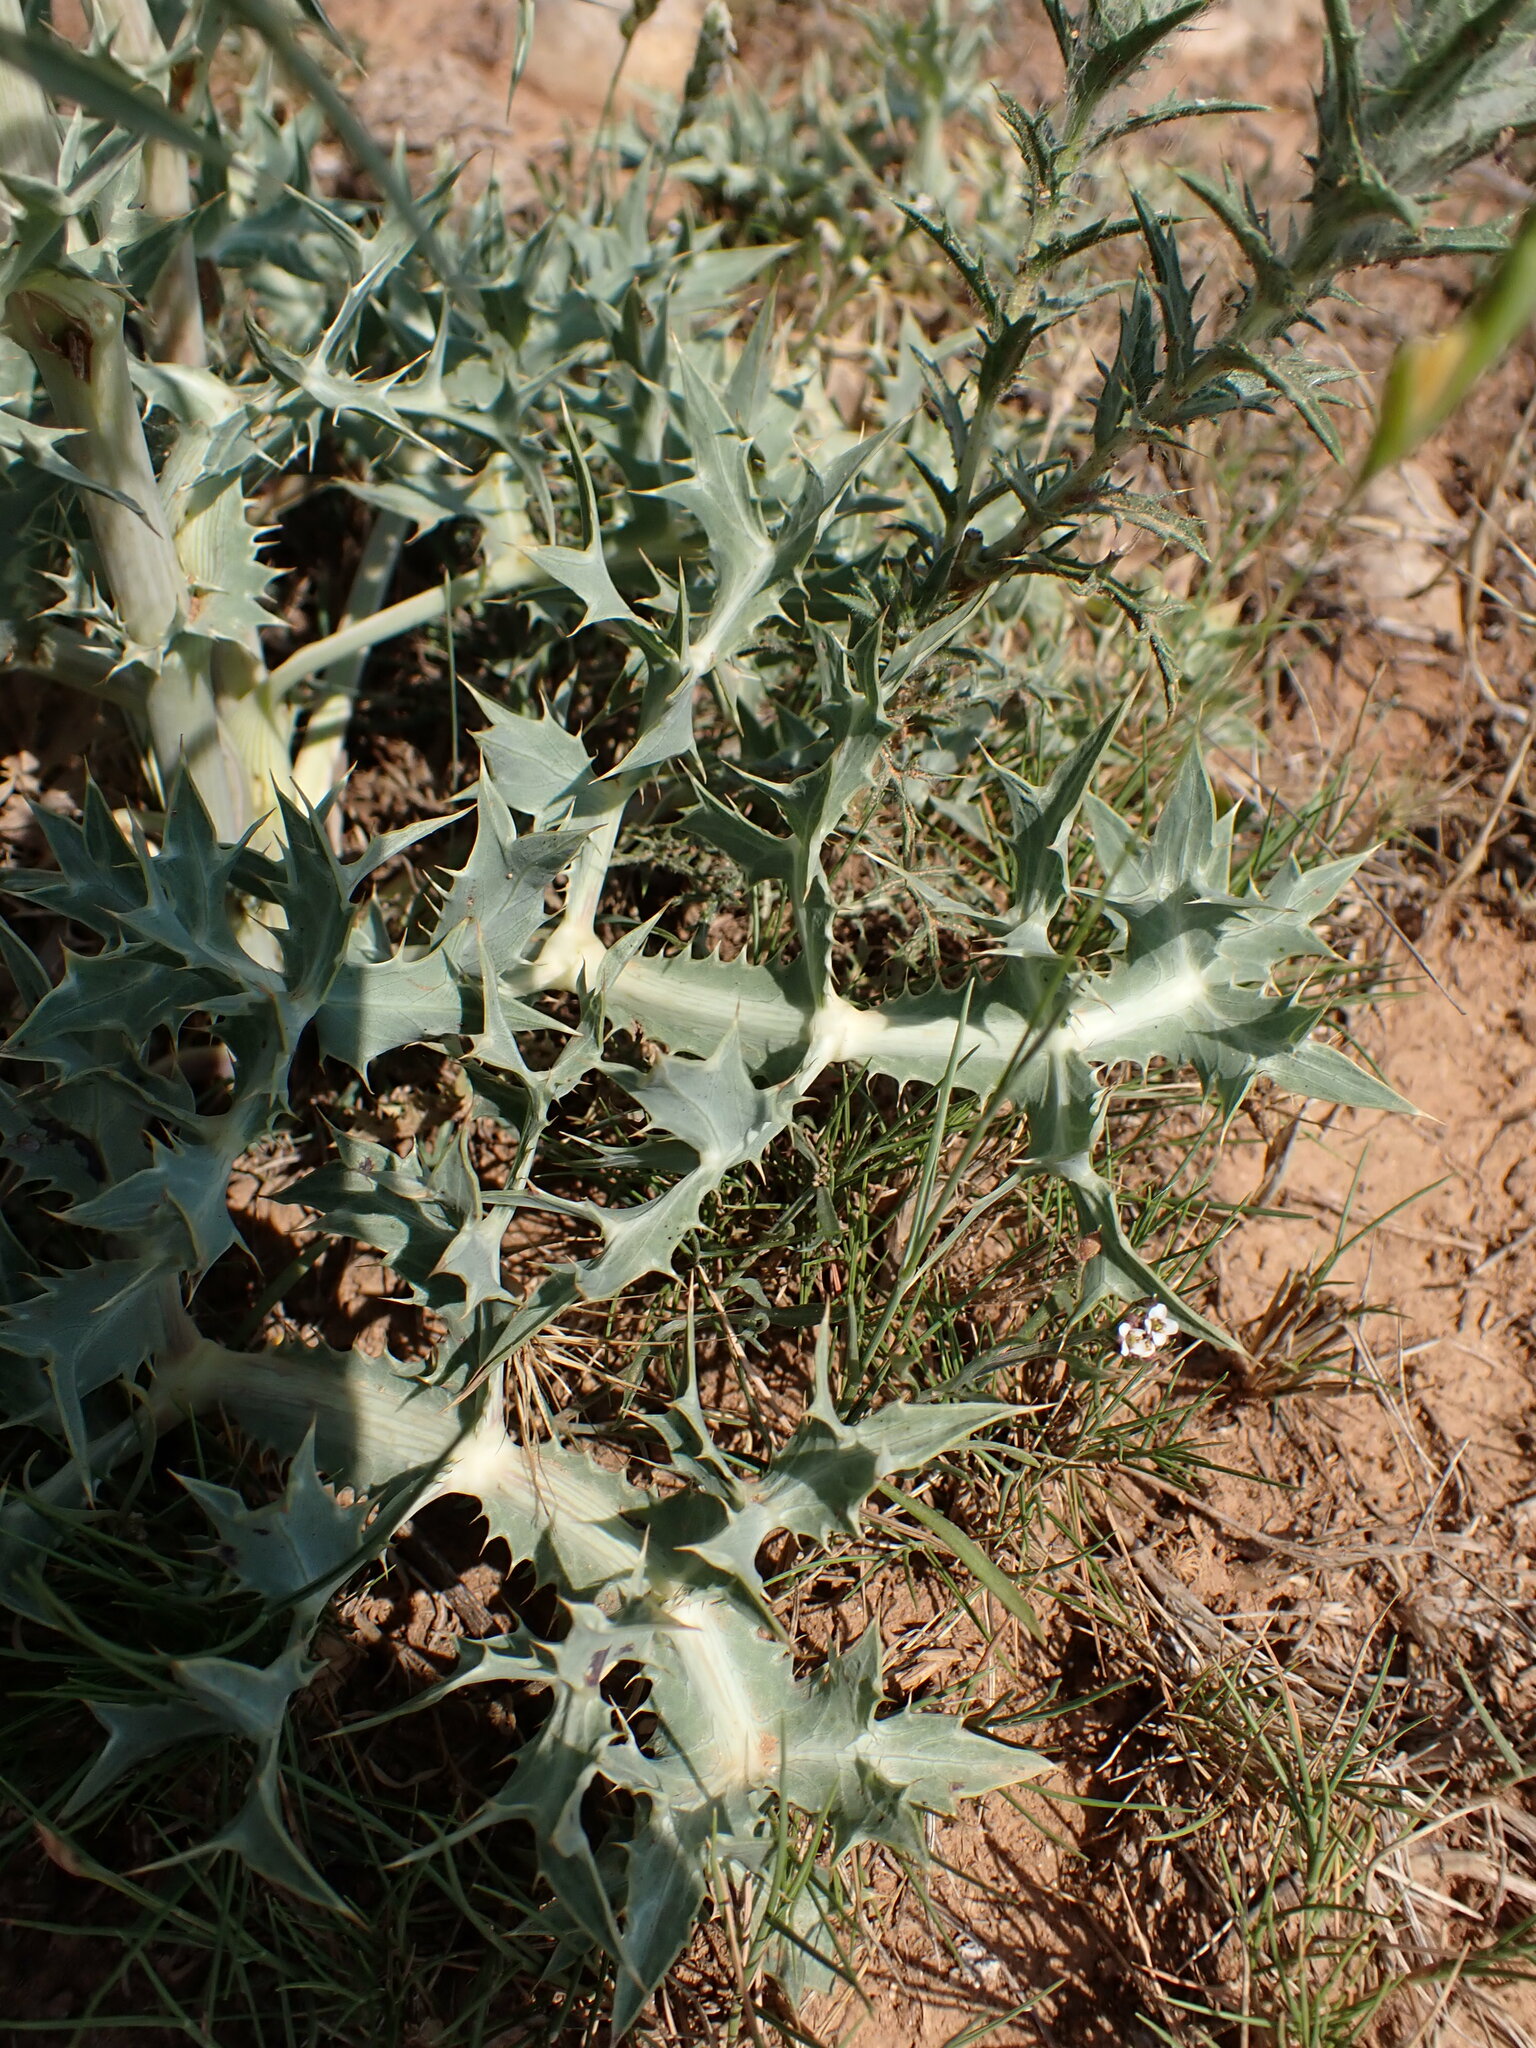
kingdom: Plantae
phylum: Tracheophyta
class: Magnoliopsida
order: Apiales
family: Apiaceae
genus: Eryngium
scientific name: Eryngium campestre
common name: Field eryngo
